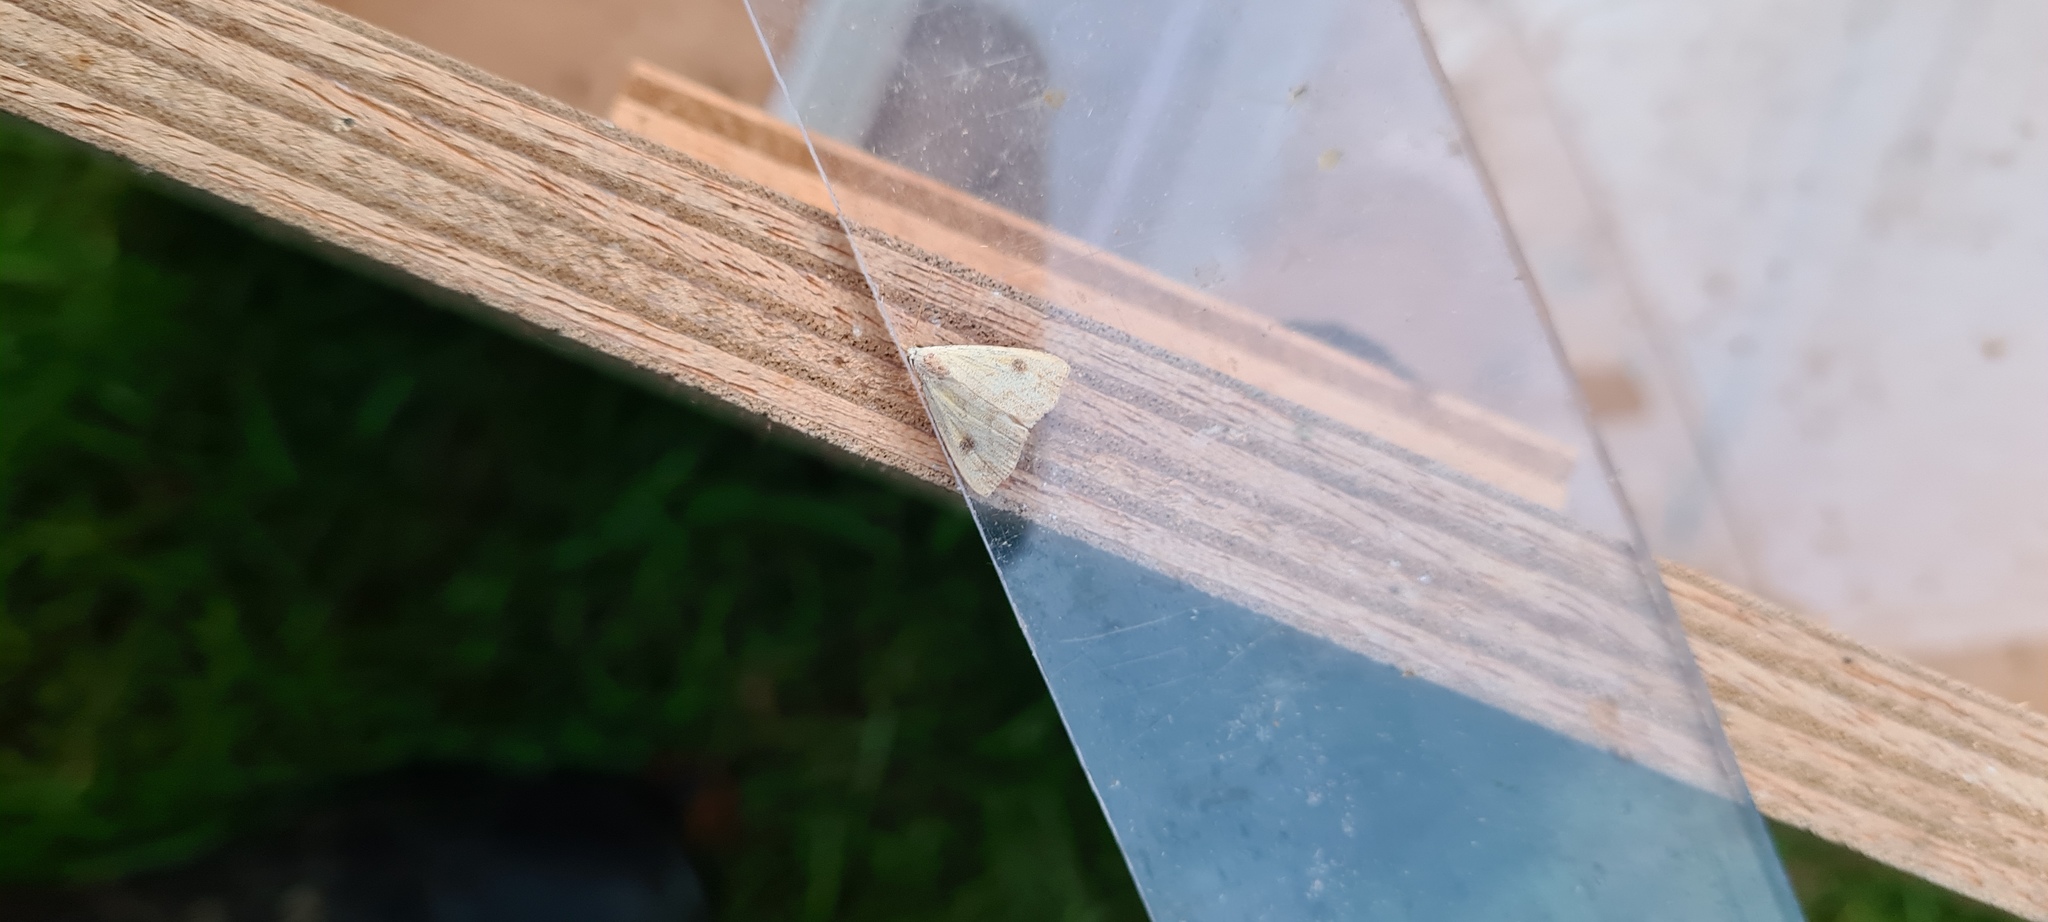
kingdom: Animalia
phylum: Arthropoda
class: Insecta
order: Lepidoptera
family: Erebidae
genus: Rivula
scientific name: Rivula sericealis
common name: Straw dot
